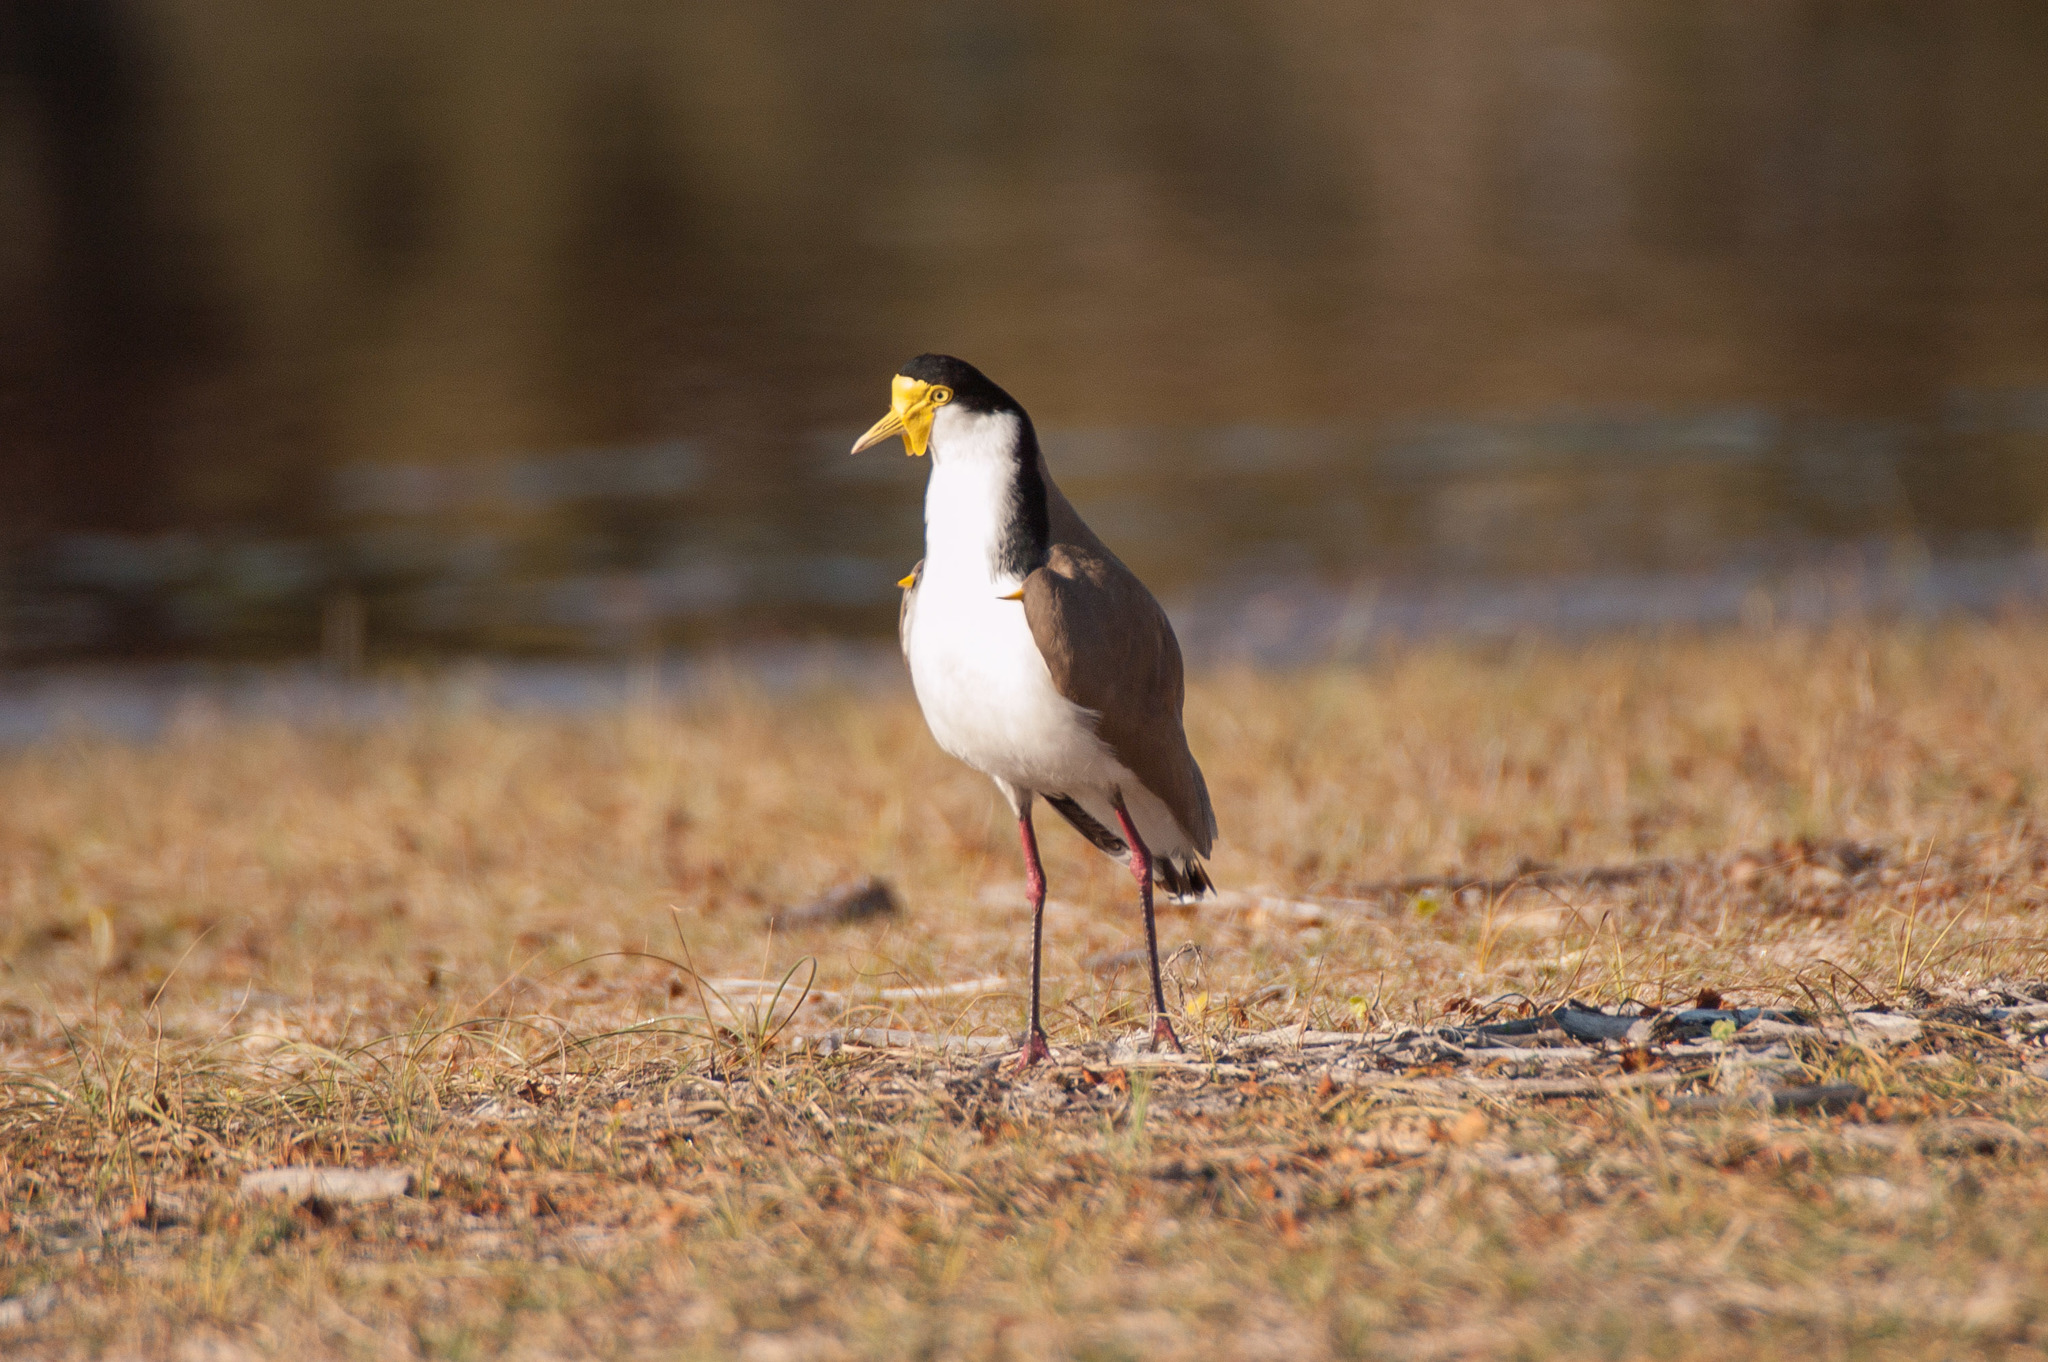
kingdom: Animalia
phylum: Chordata
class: Aves
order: Charadriiformes
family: Charadriidae
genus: Vanellus
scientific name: Vanellus miles
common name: Masked lapwing
